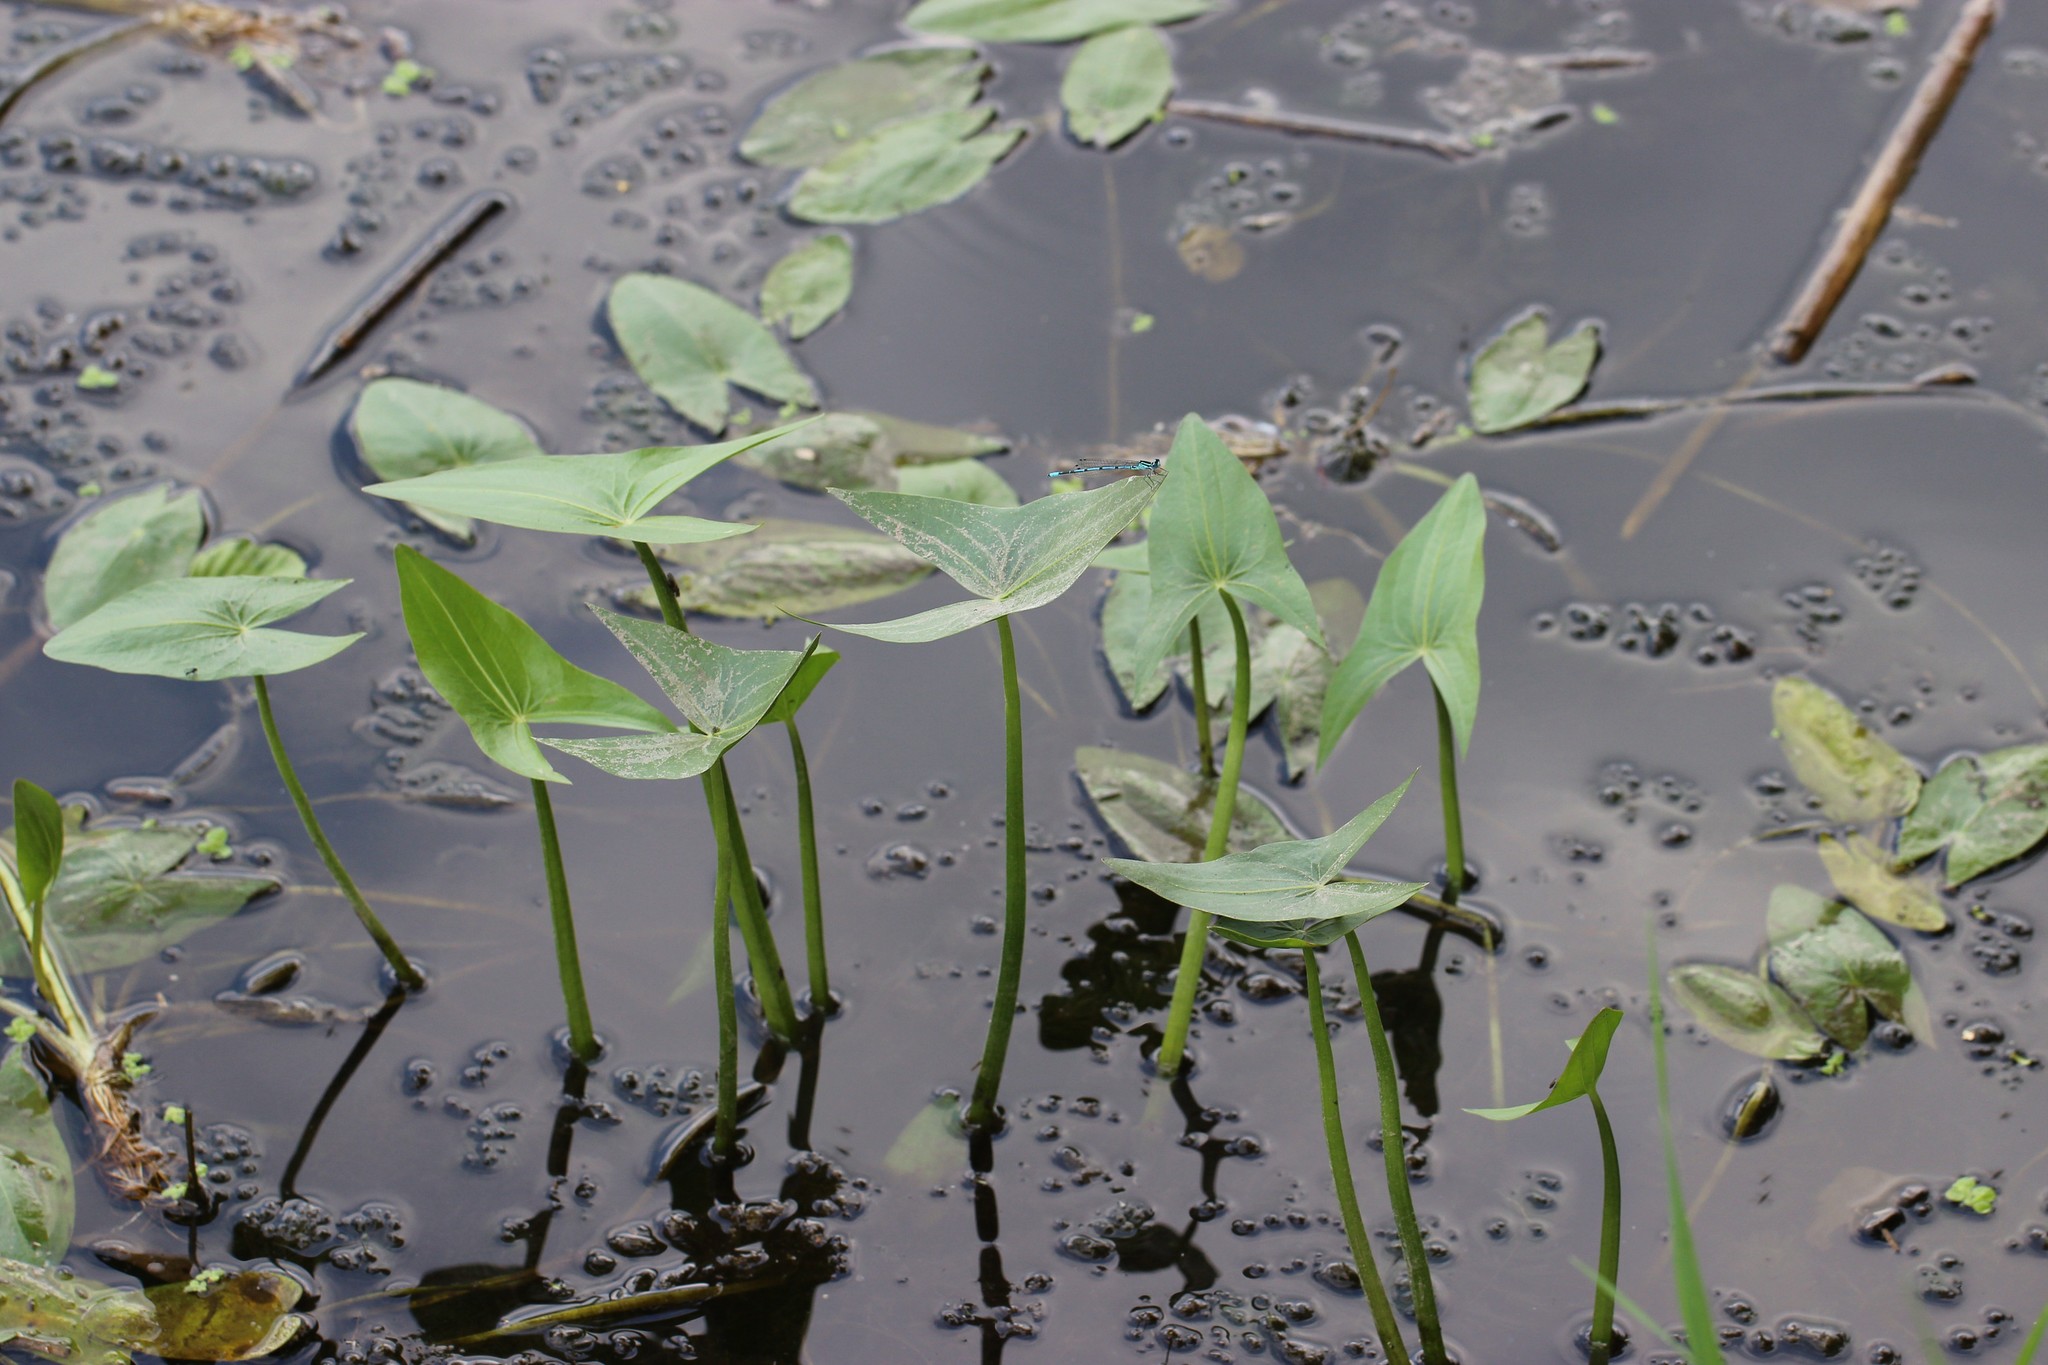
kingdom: Plantae
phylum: Tracheophyta
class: Liliopsida
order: Alismatales
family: Alismataceae
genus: Sagittaria
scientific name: Sagittaria sagittifolia
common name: Arrowhead
